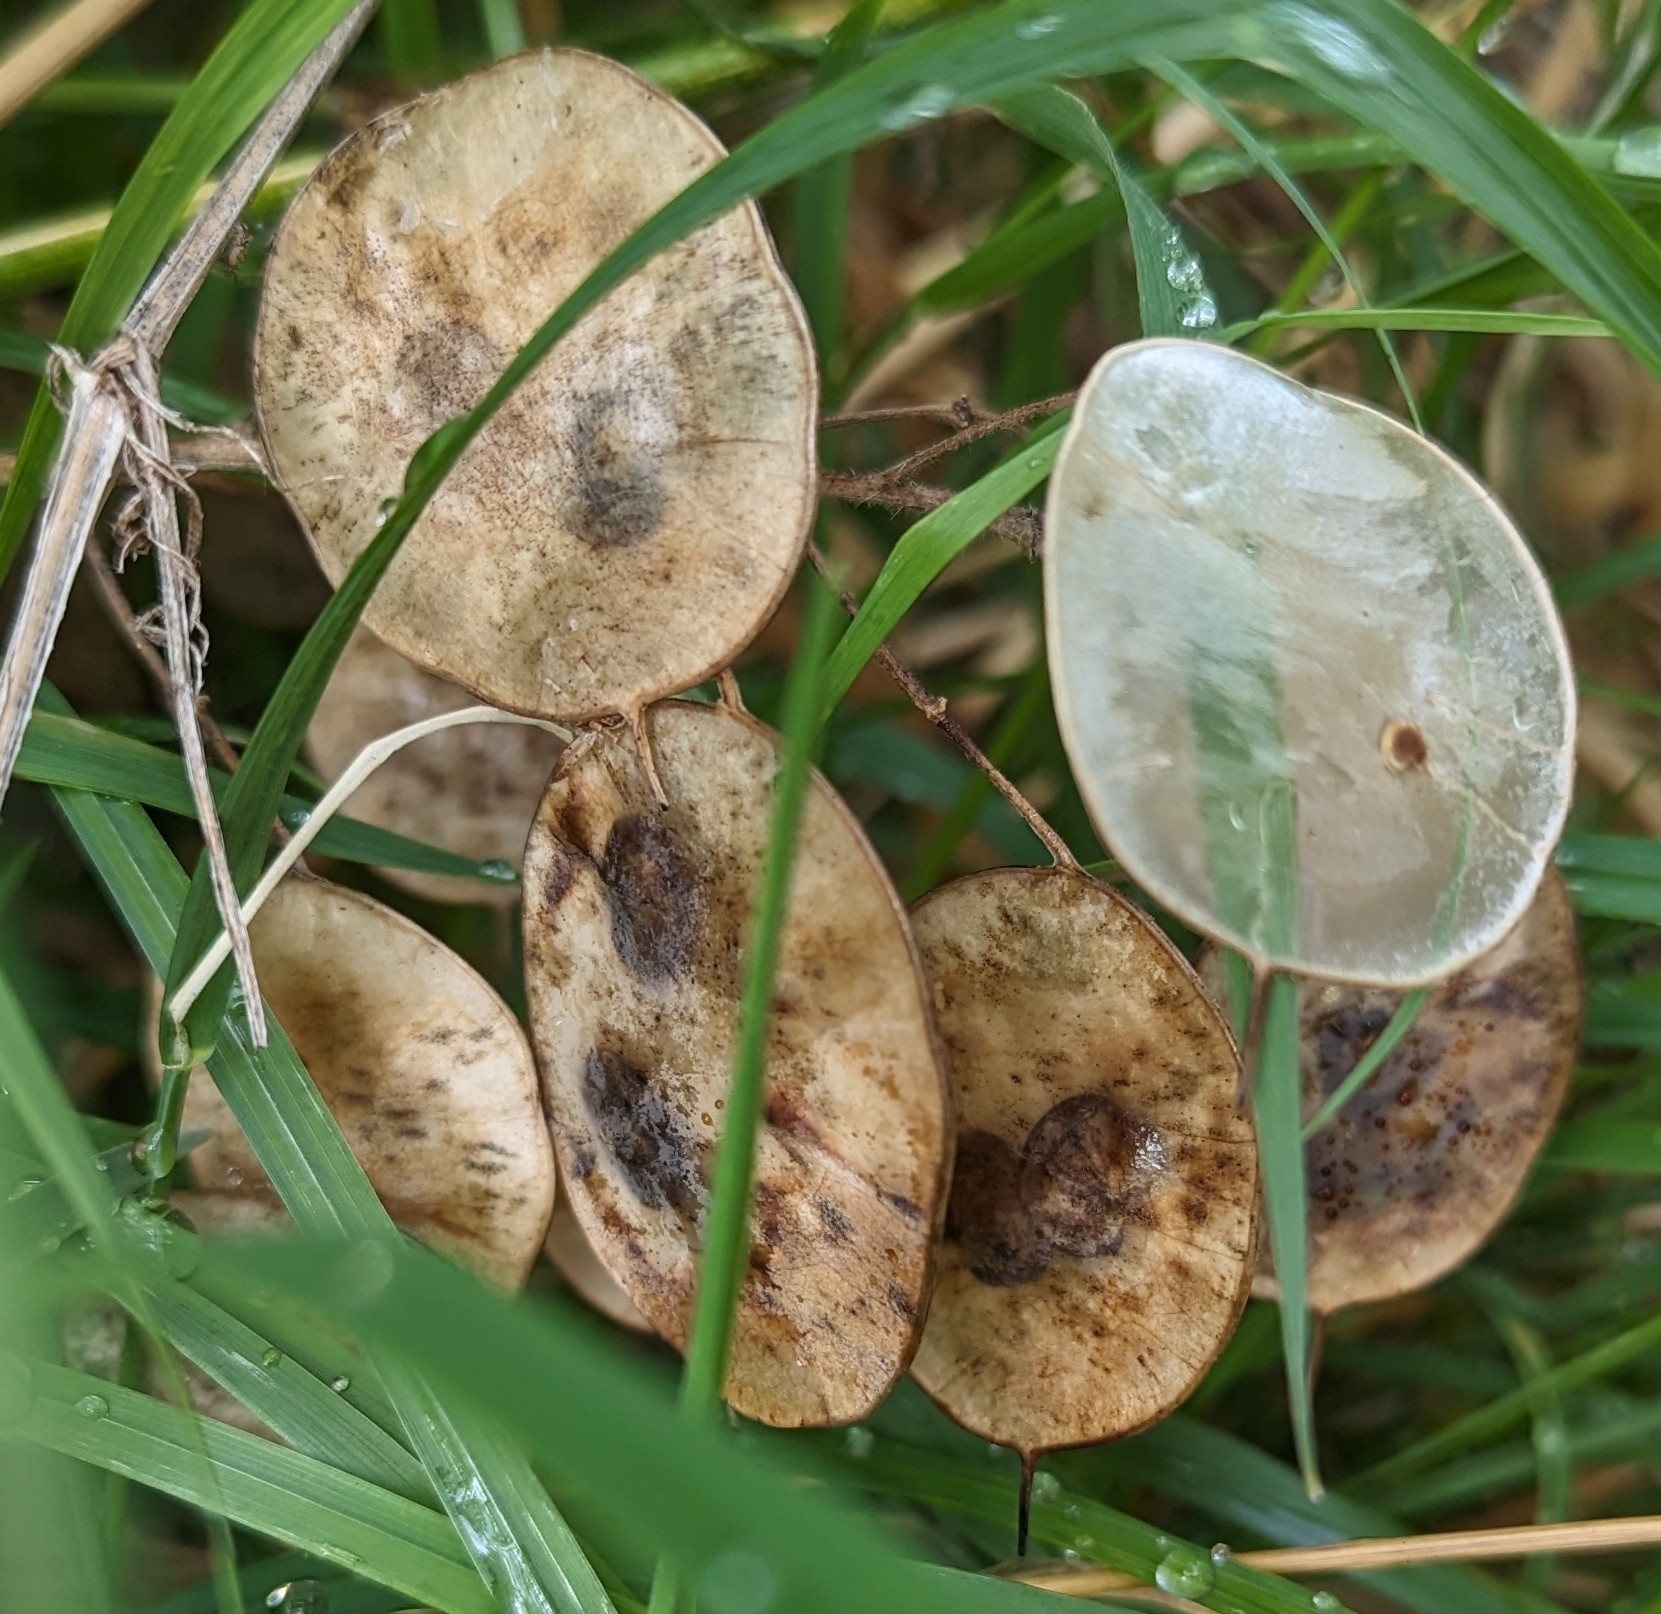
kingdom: Plantae
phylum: Tracheophyta
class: Magnoliopsida
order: Brassicales
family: Brassicaceae
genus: Lunaria
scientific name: Lunaria annua
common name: Honesty
